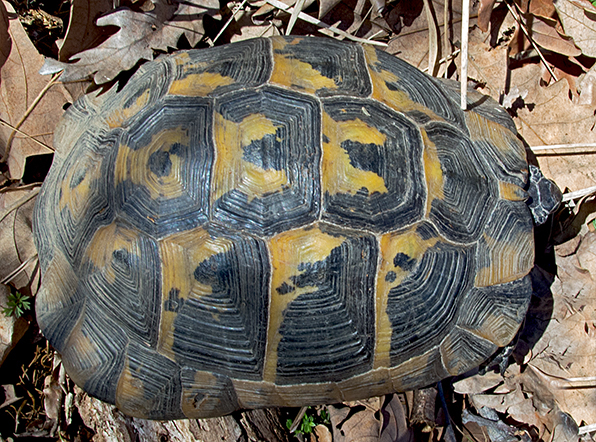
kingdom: Animalia
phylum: Chordata
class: Testudines
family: Testudinidae
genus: Testudo
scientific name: Testudo graeca
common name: Common tortoise
